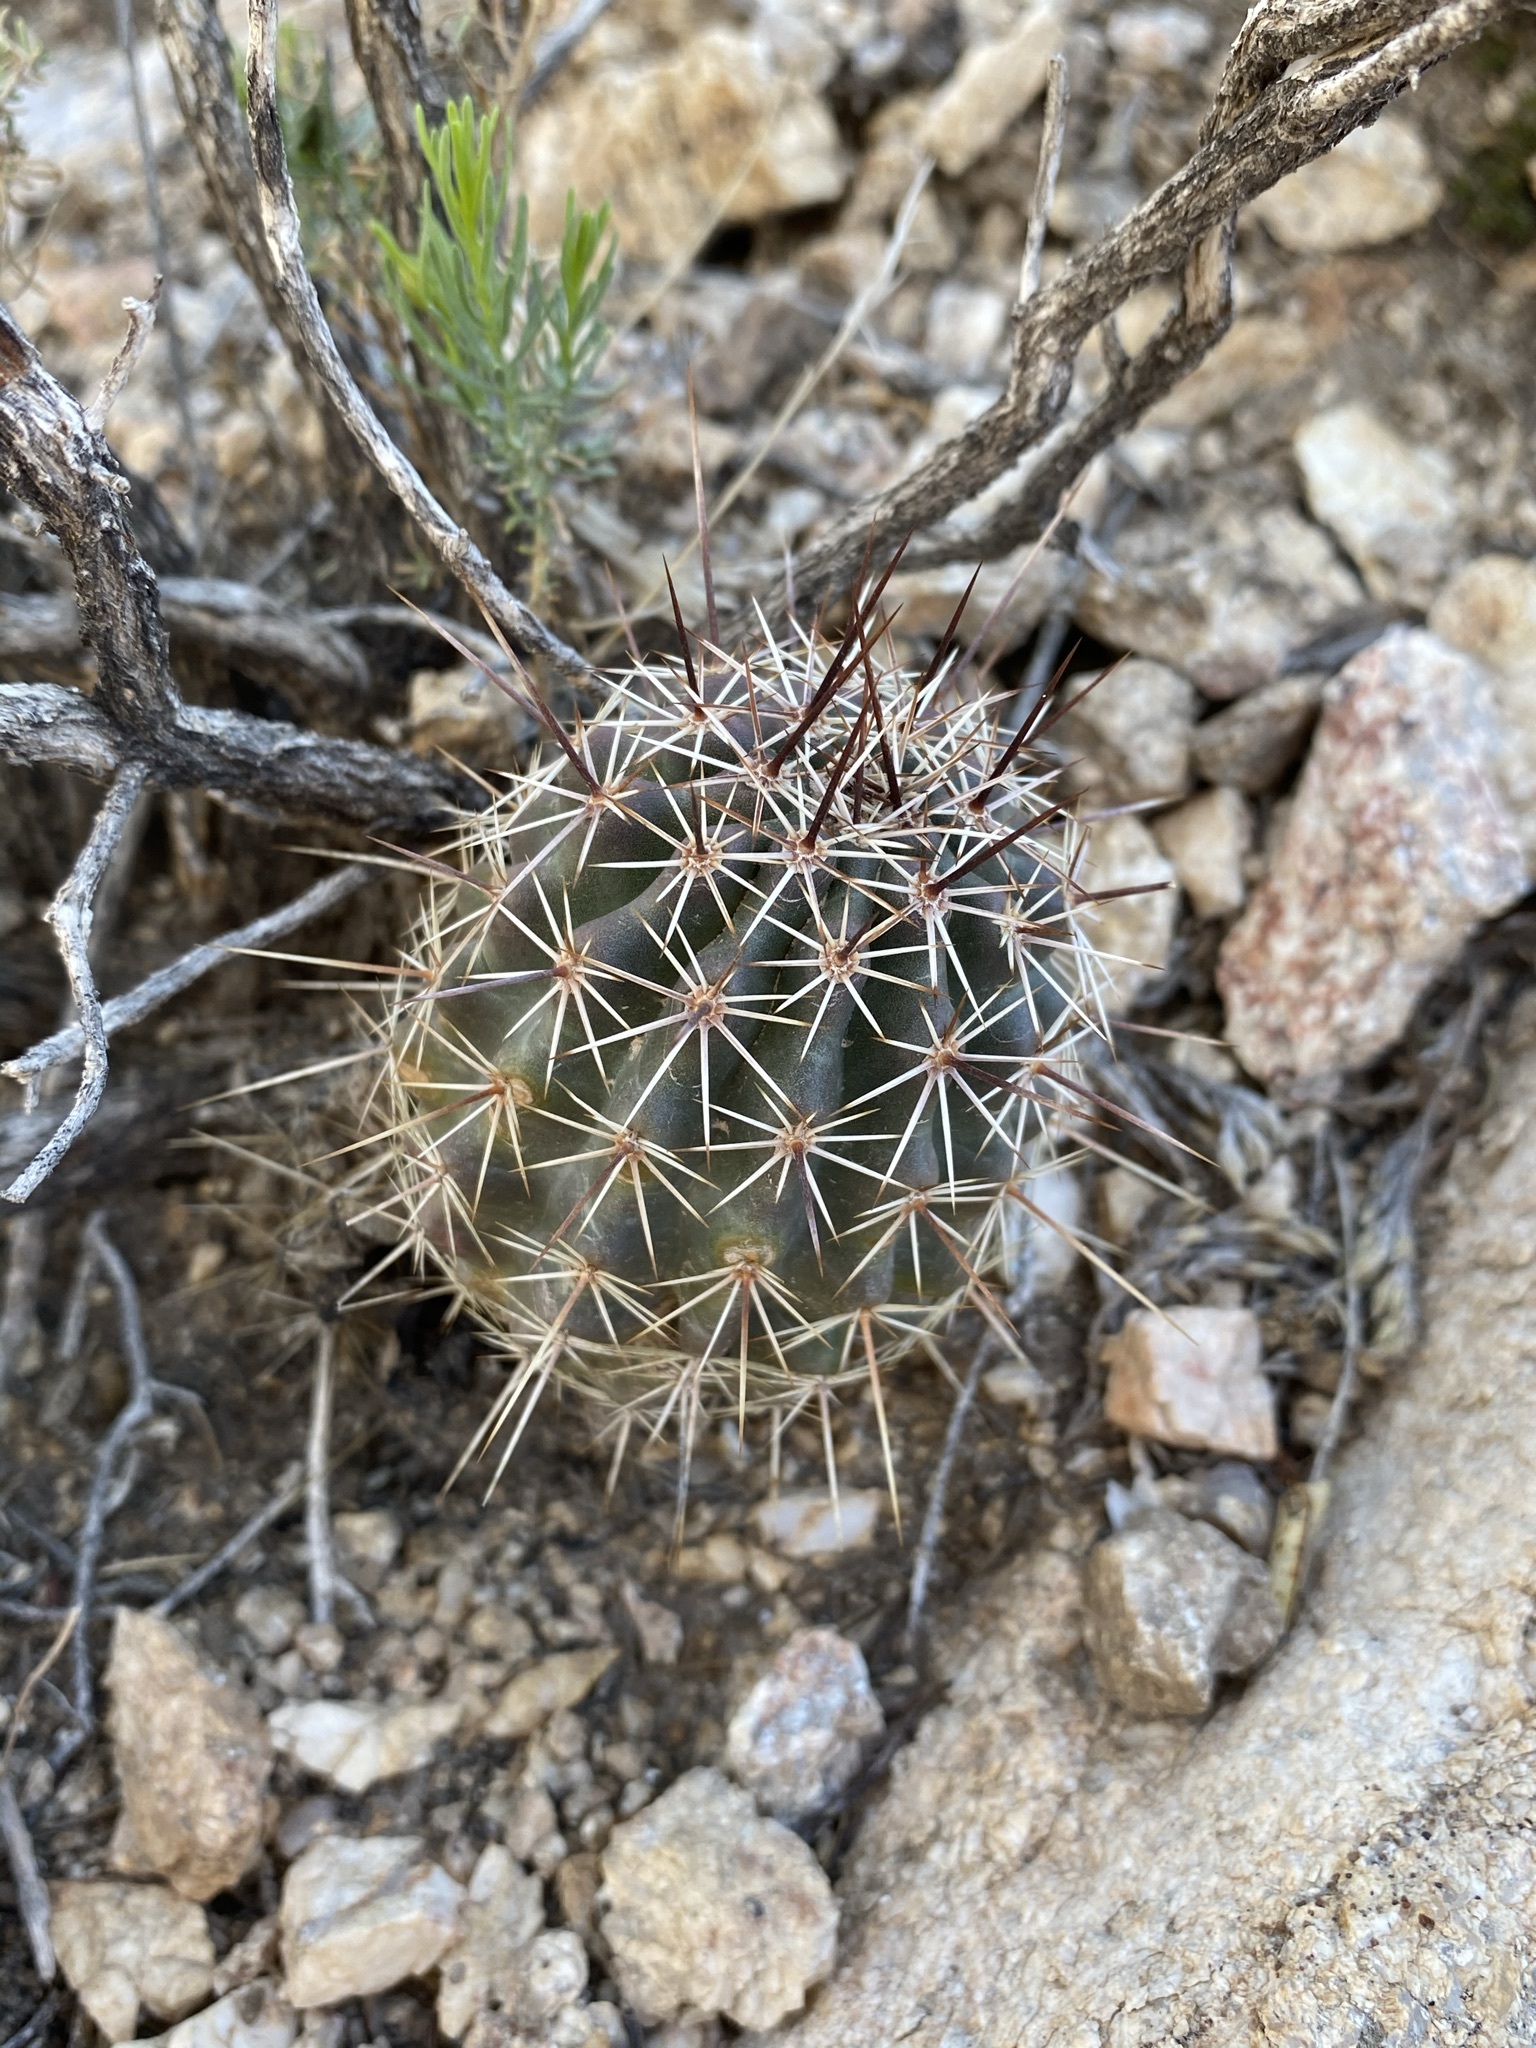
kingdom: Plantae
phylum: Tracheophyta
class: Magnoliopsida
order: Caryophyllales
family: Cactaceae
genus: Echinocereus
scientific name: Echinocereus fasciculatus
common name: Bundle hedgehog
